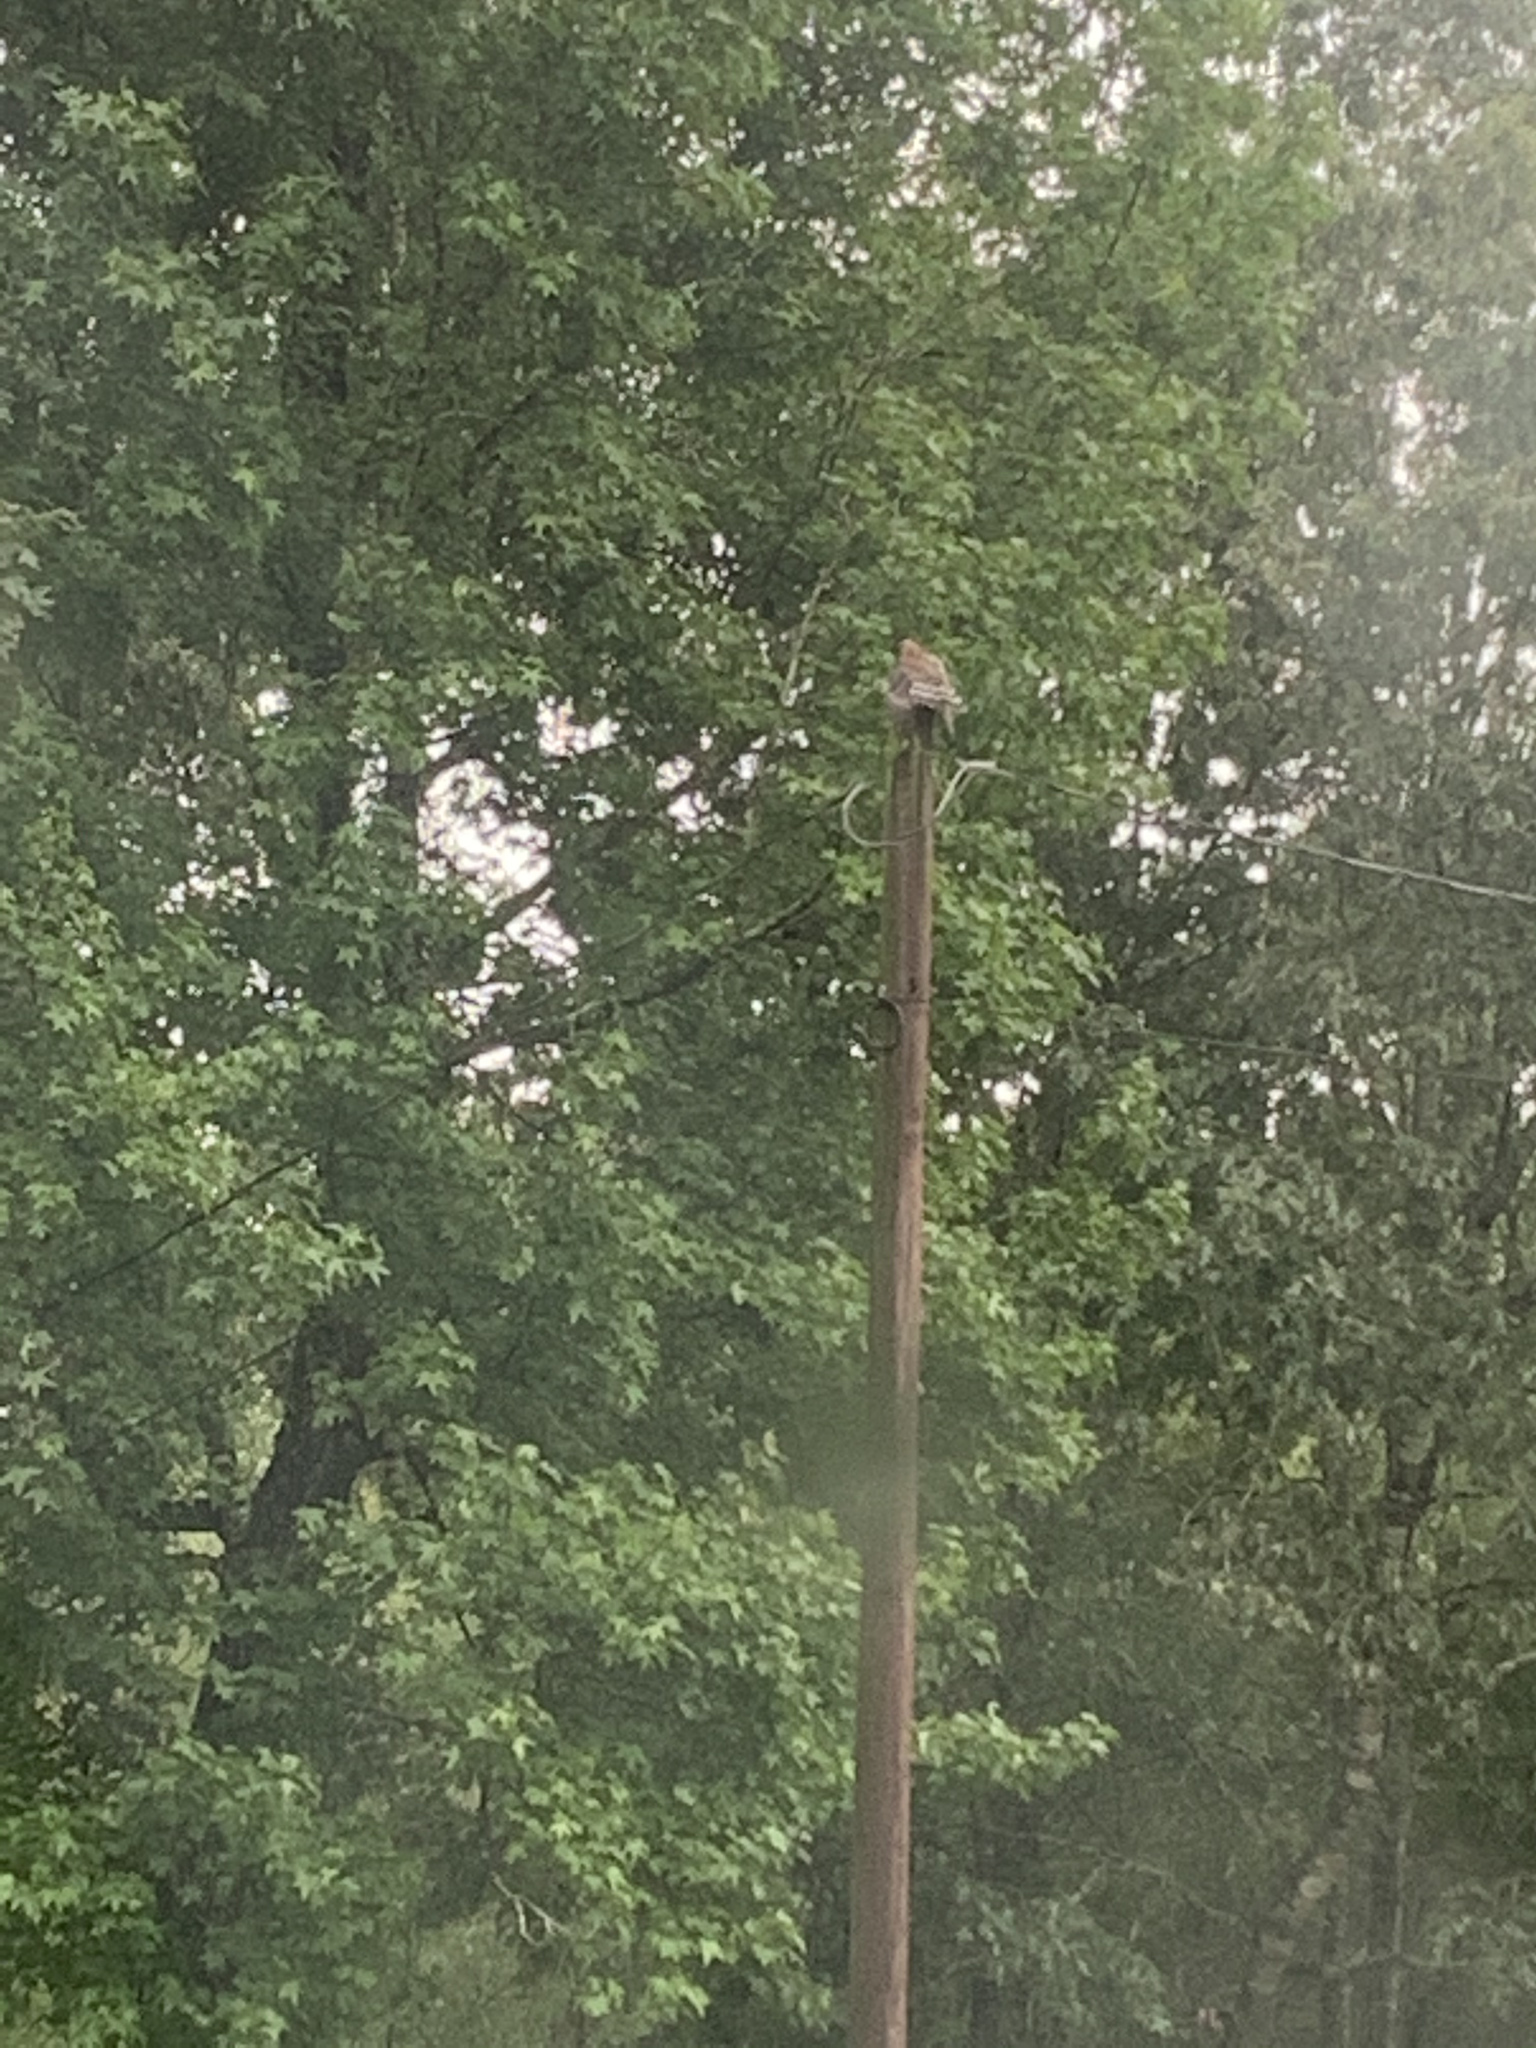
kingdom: Animalia
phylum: Chordata
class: Aves
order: Accipitriformes
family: Accipitridae
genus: Buteo
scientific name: Buteo lineatus
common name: Red-shouldered hawk
